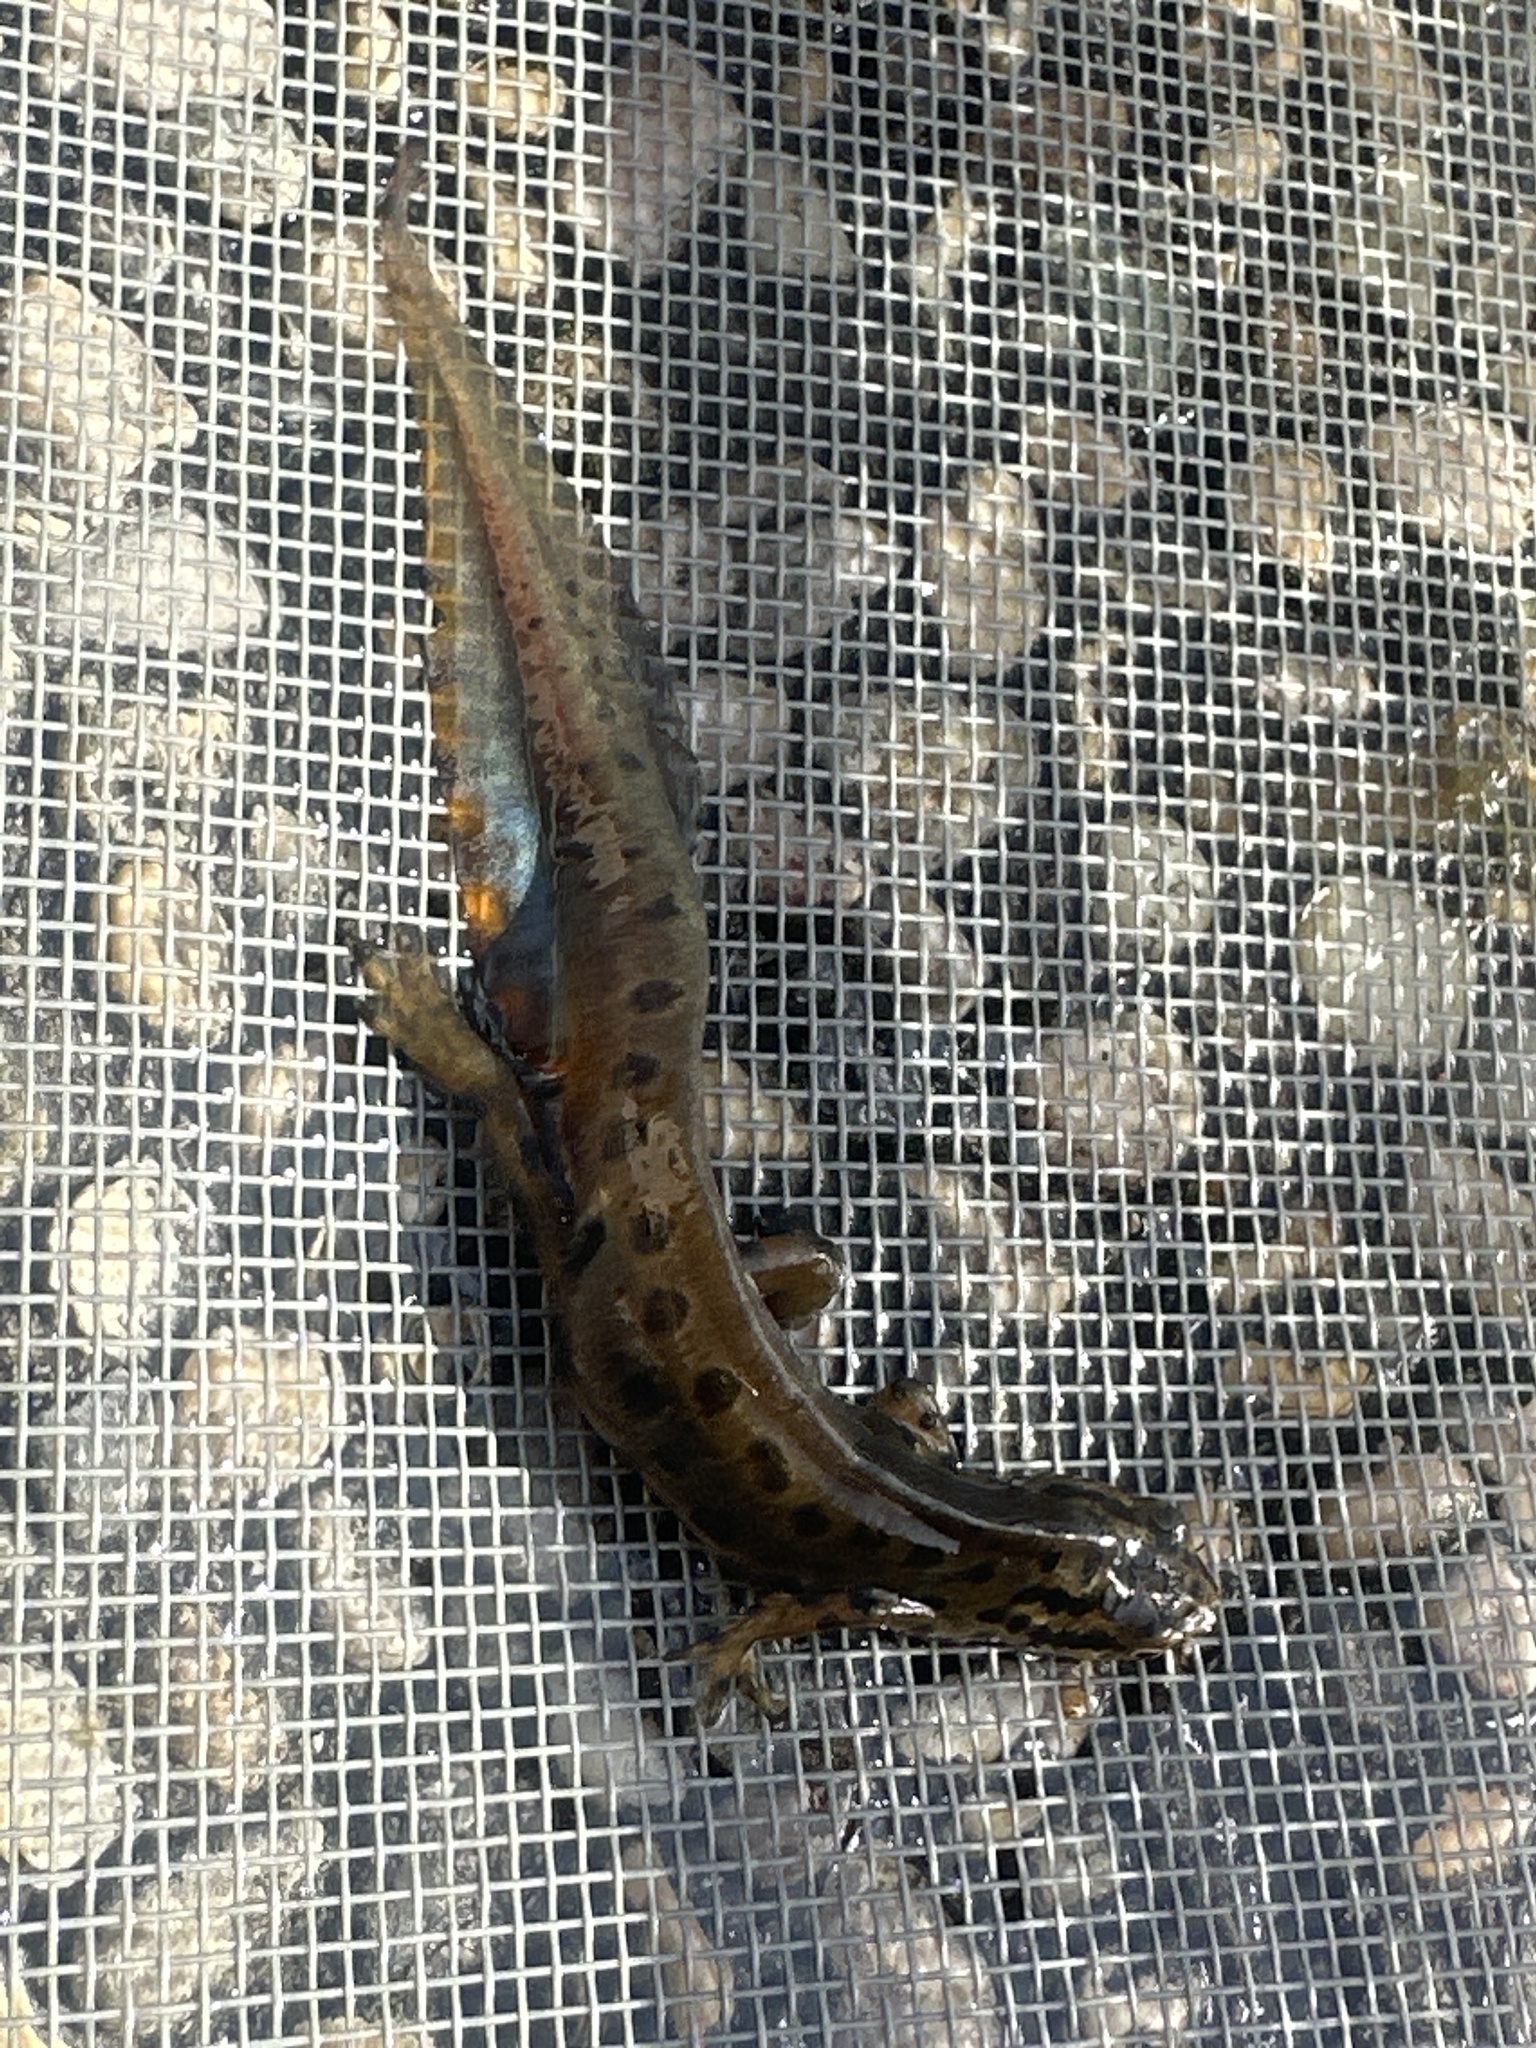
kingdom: Animalia
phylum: Chordata
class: Amphibia
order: Caudata
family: Salamandridae
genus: Lissotriton
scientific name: Lissotriton vulgaris
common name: Smooth newt
